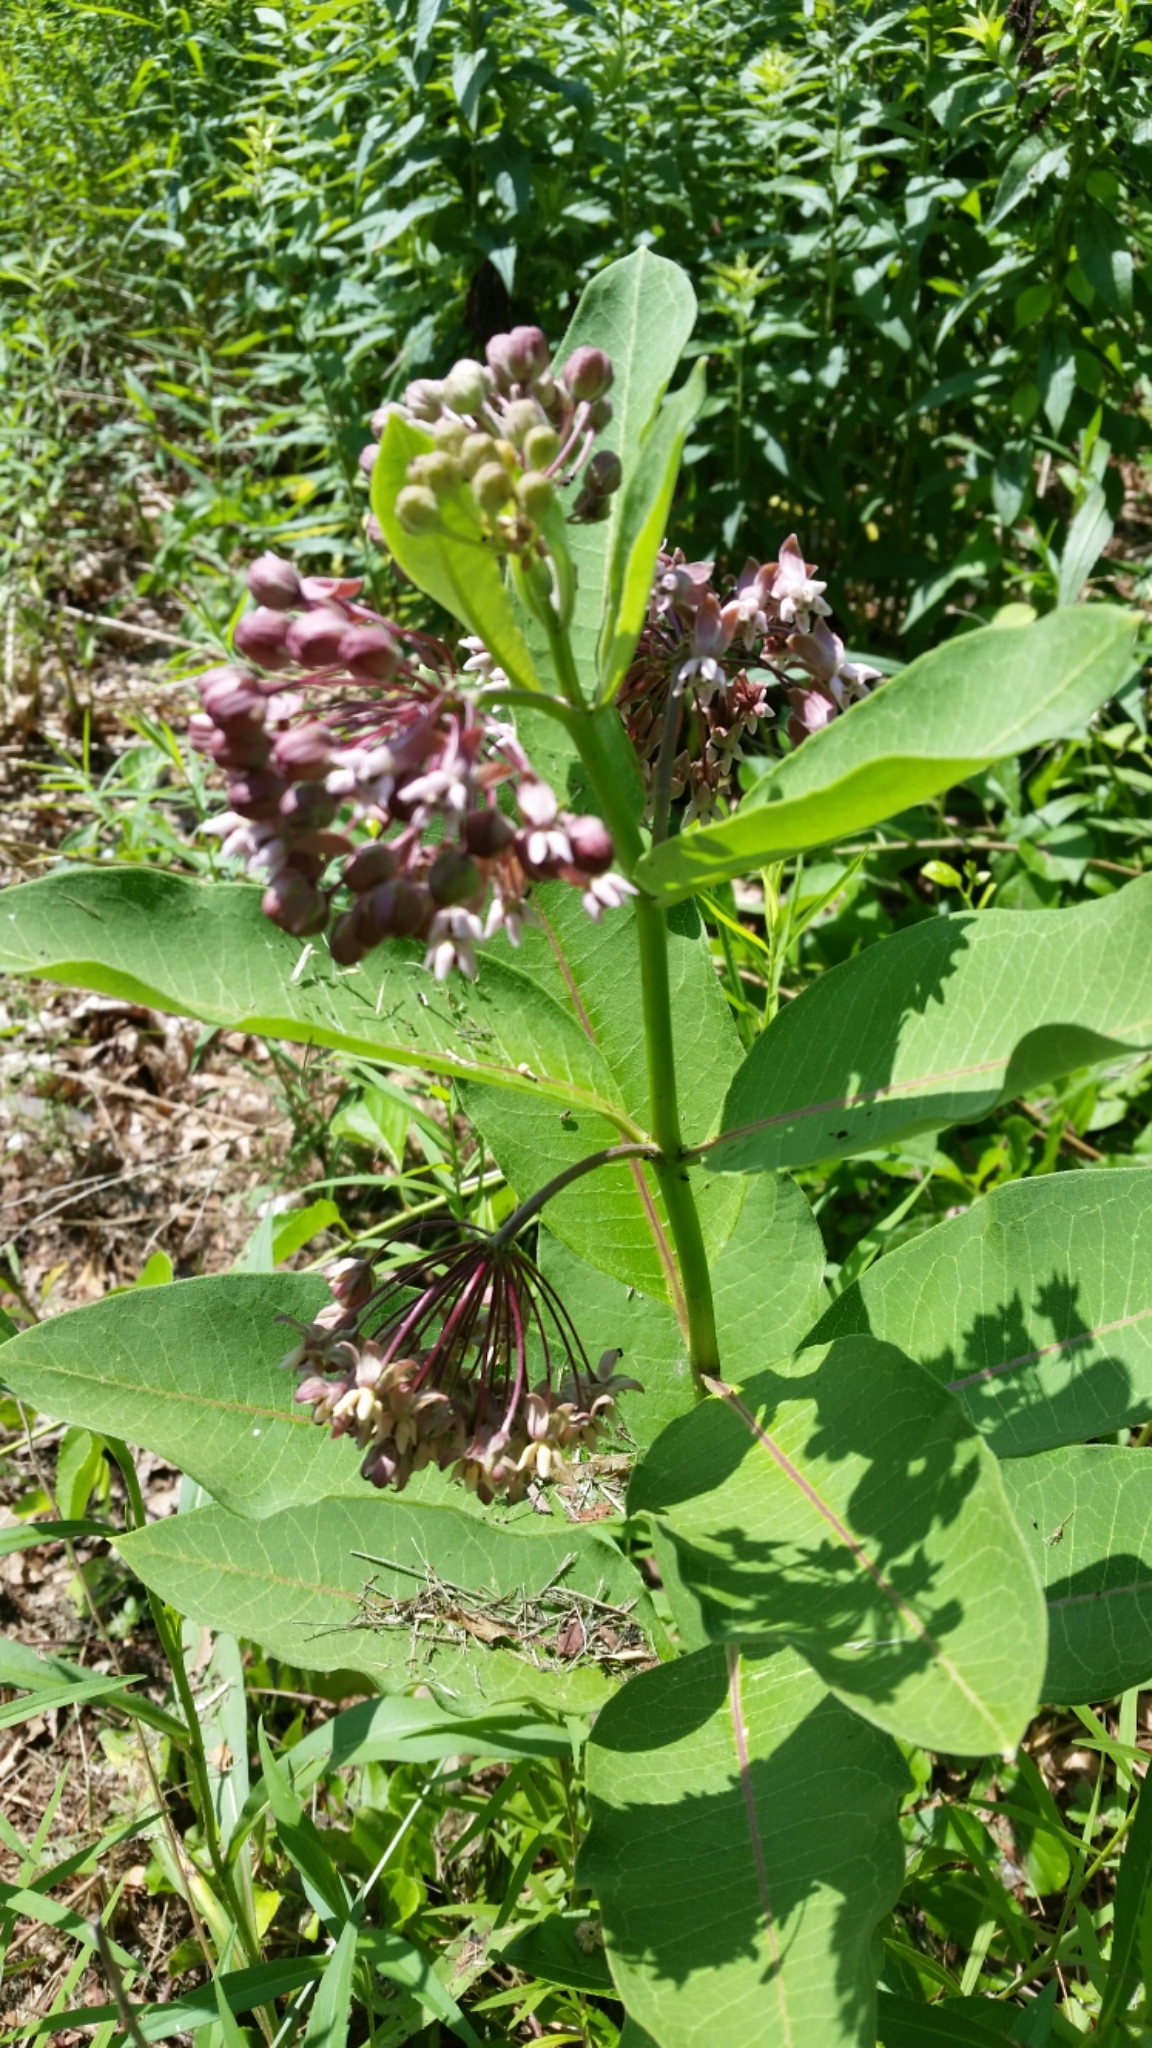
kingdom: Plantae
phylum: Tracheophyta
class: Magnoliopsida
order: Gentianales
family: Apocynaceae
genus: Asclepias
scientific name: Asclepias syriaca
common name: Common milkweed
